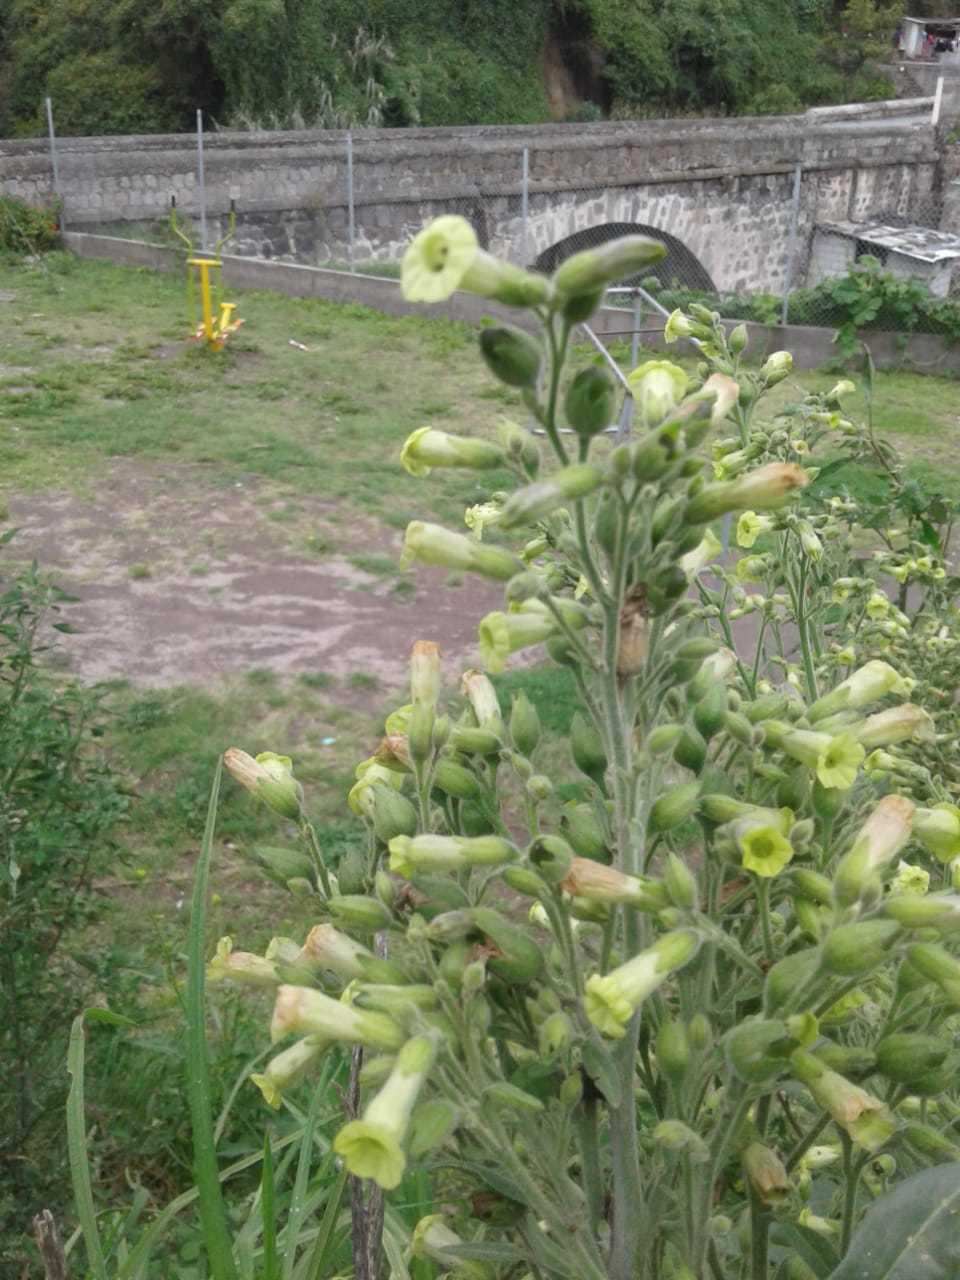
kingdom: Plantae
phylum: Tracheophyta
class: Magnoliopsida
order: Solanales
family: Solanaceae
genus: Nicotiana
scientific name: Nicotiana rustica
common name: Wild tobacco
